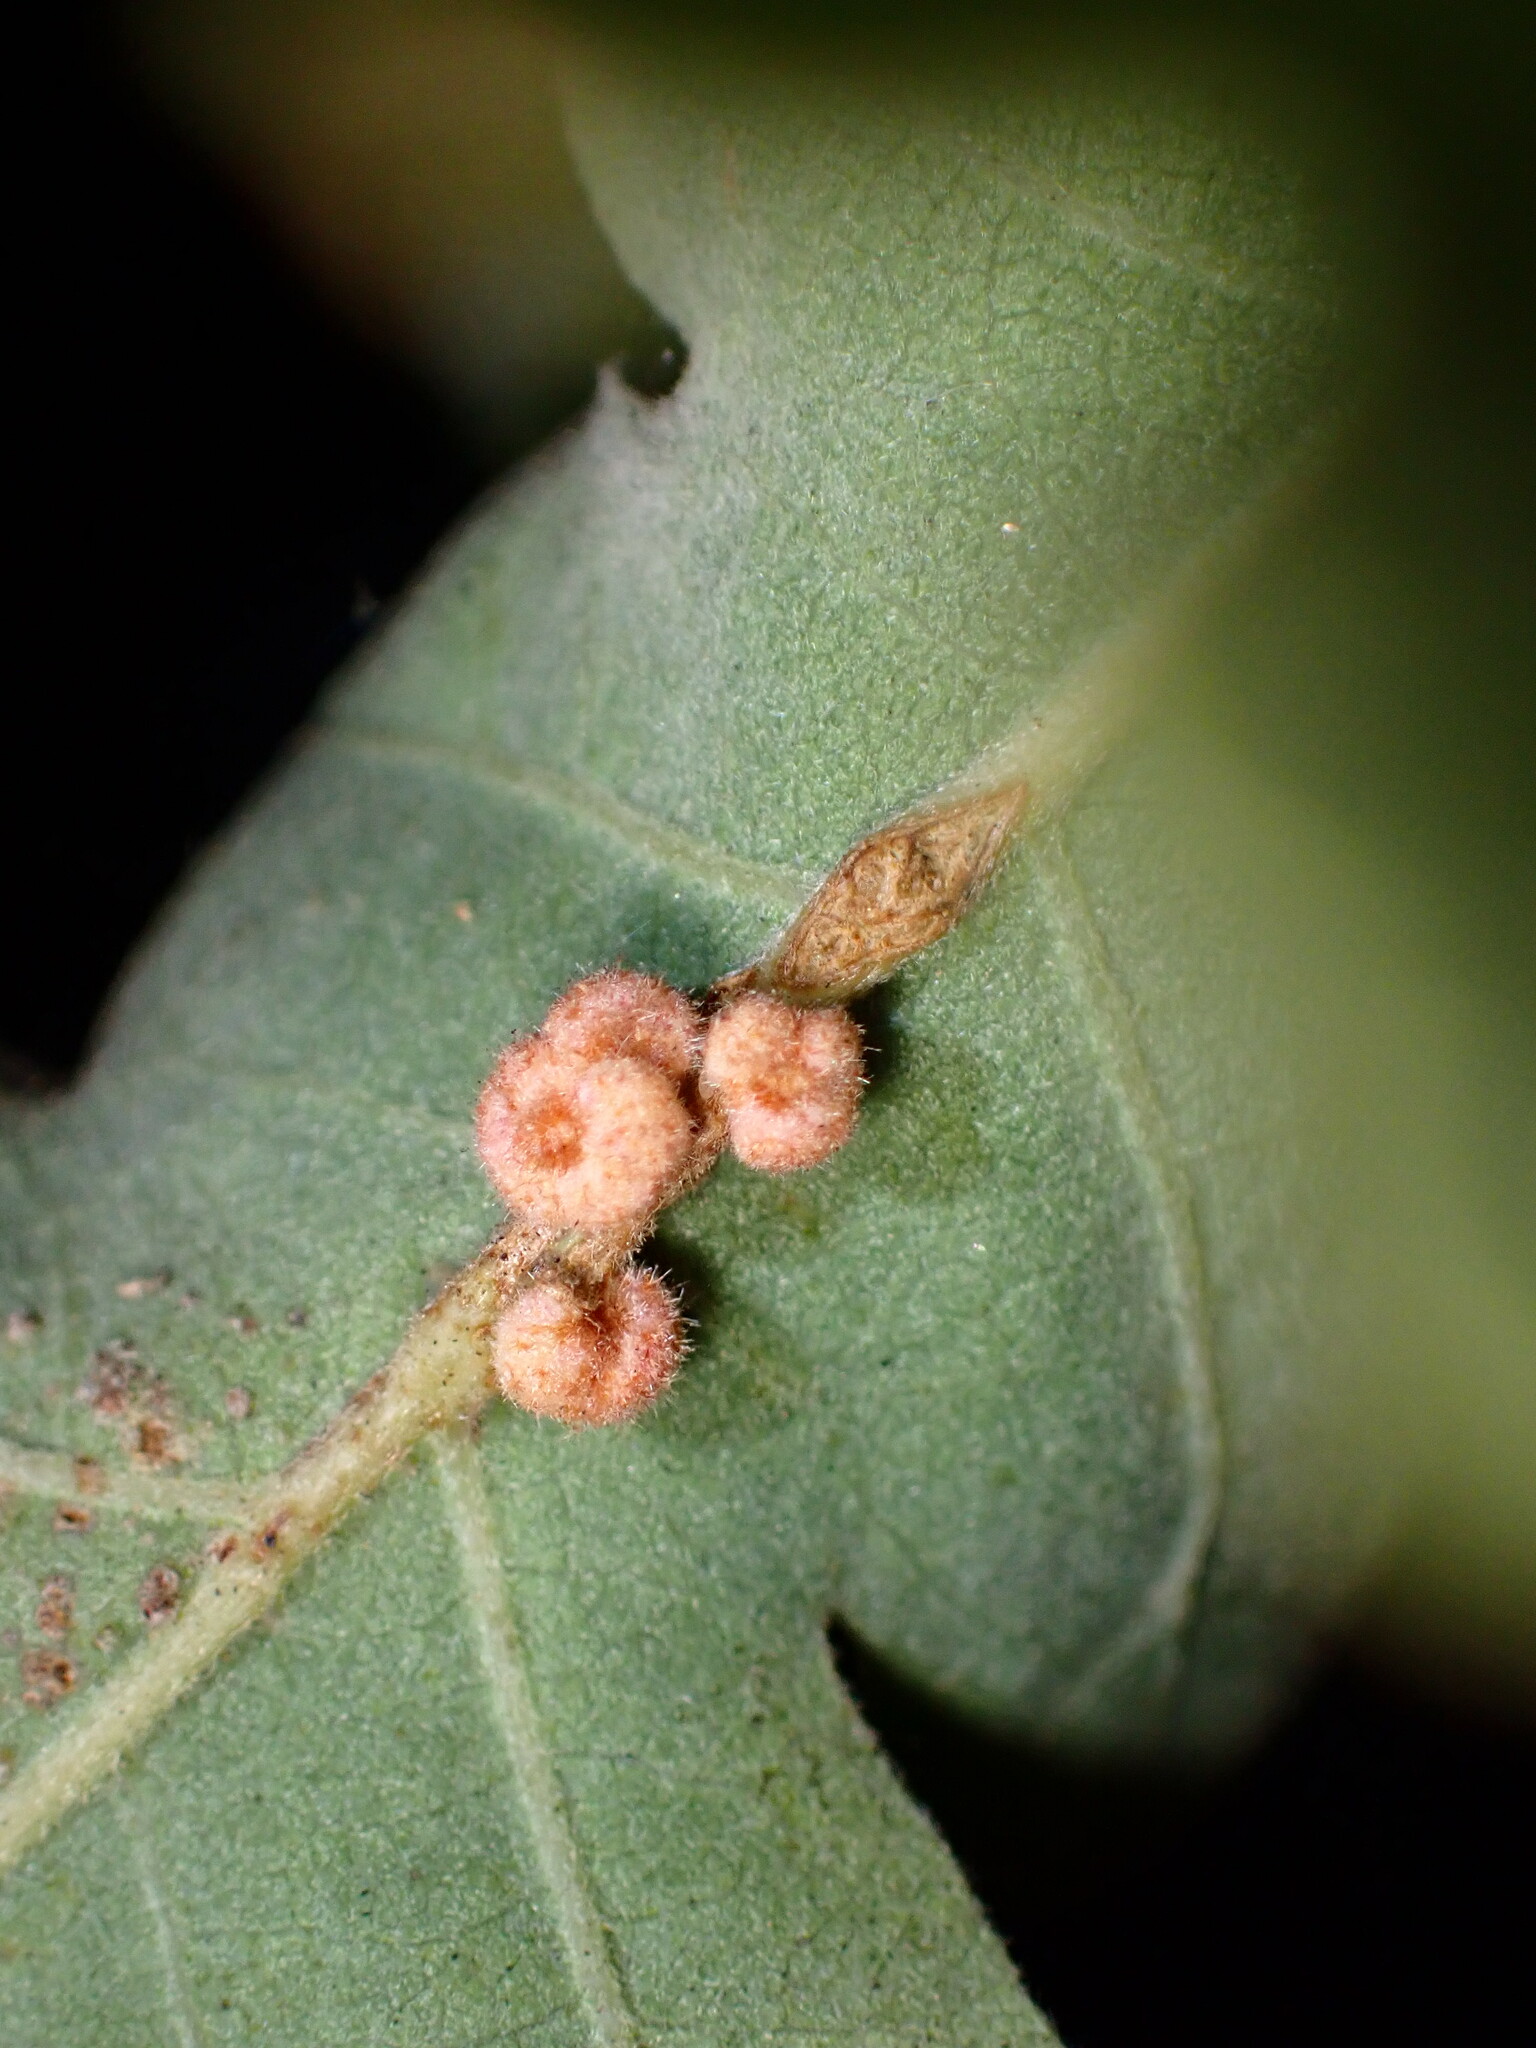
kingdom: Animalia
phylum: Arthropoda
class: Insecta
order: Hymenoptera
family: Cynipidae
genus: Andricus
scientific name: Andricus
